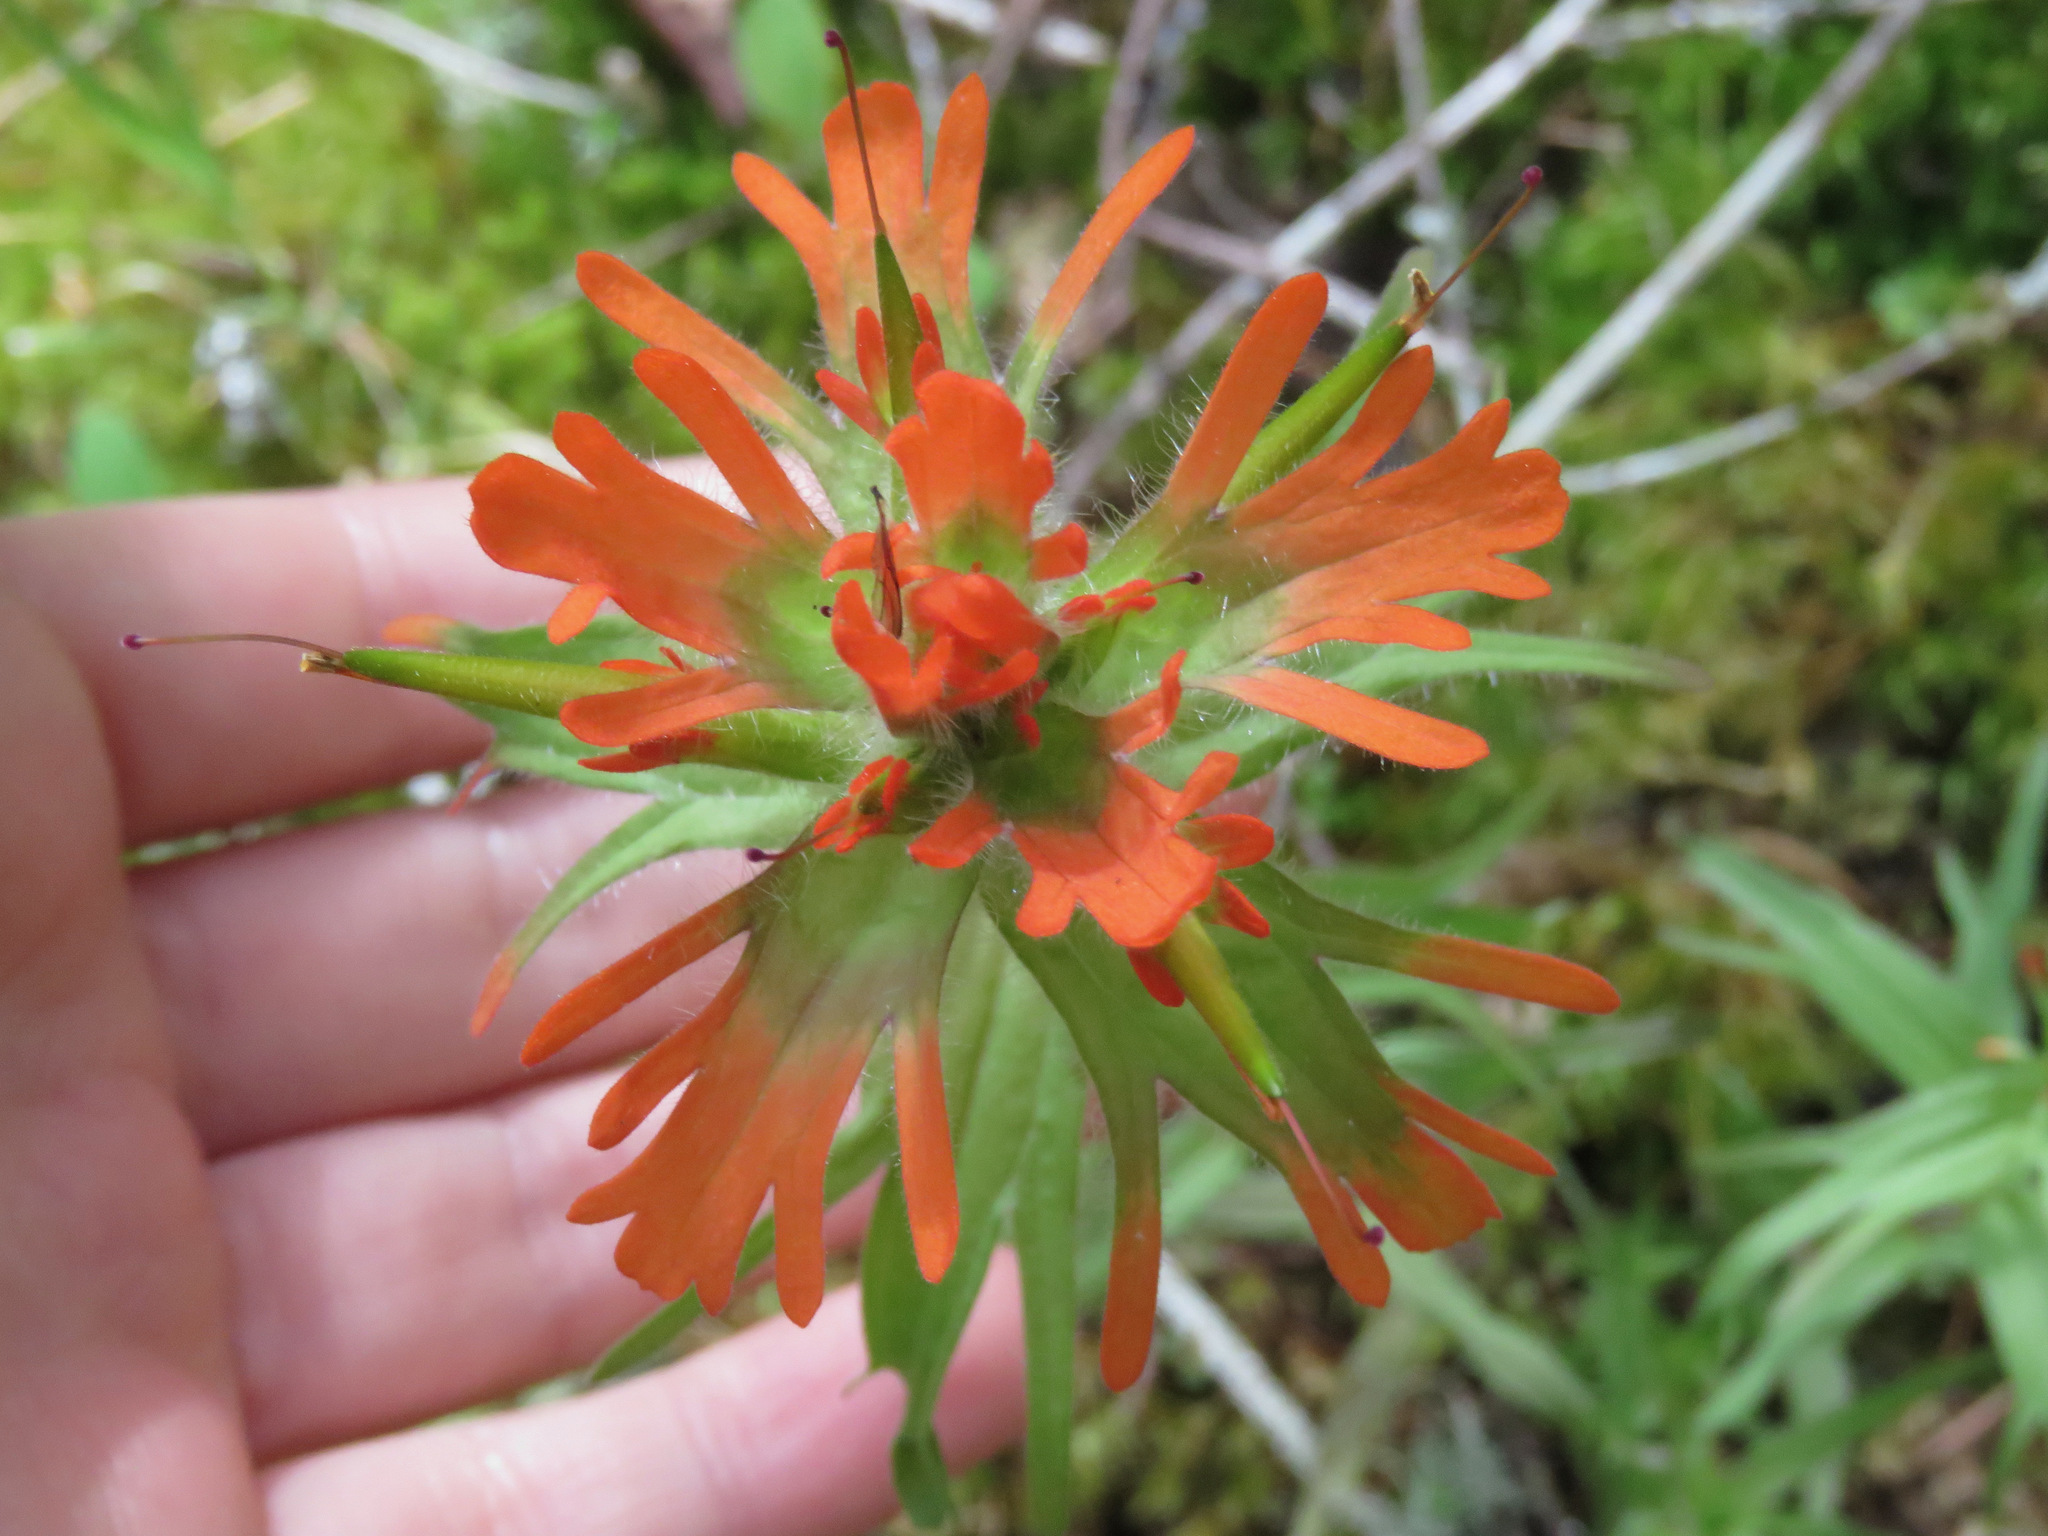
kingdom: Plantae
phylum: Tracheophyta
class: Magnoliopsida
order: Lamiales
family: Orobanchaceae
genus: Castilleja
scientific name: Castilleja hispida
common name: Bristly paintbrush
